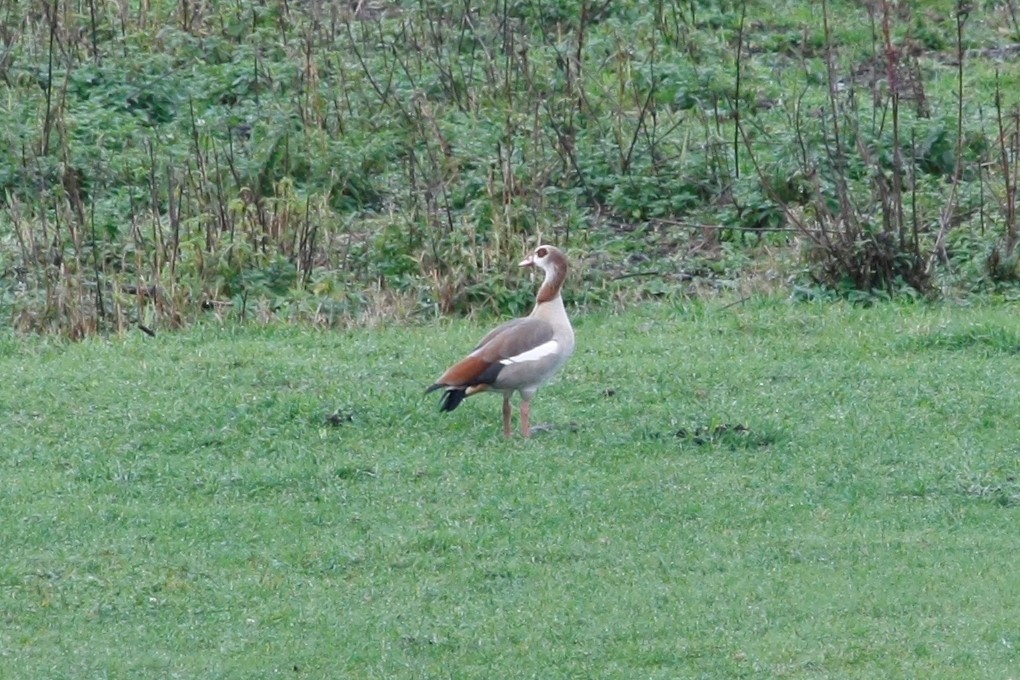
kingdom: Animalia
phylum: Chordata
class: Aves
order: Anseriformes
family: Anatidae
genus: Alopochen
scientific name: Alopochen aegyptiaca
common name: Egyptian goose
